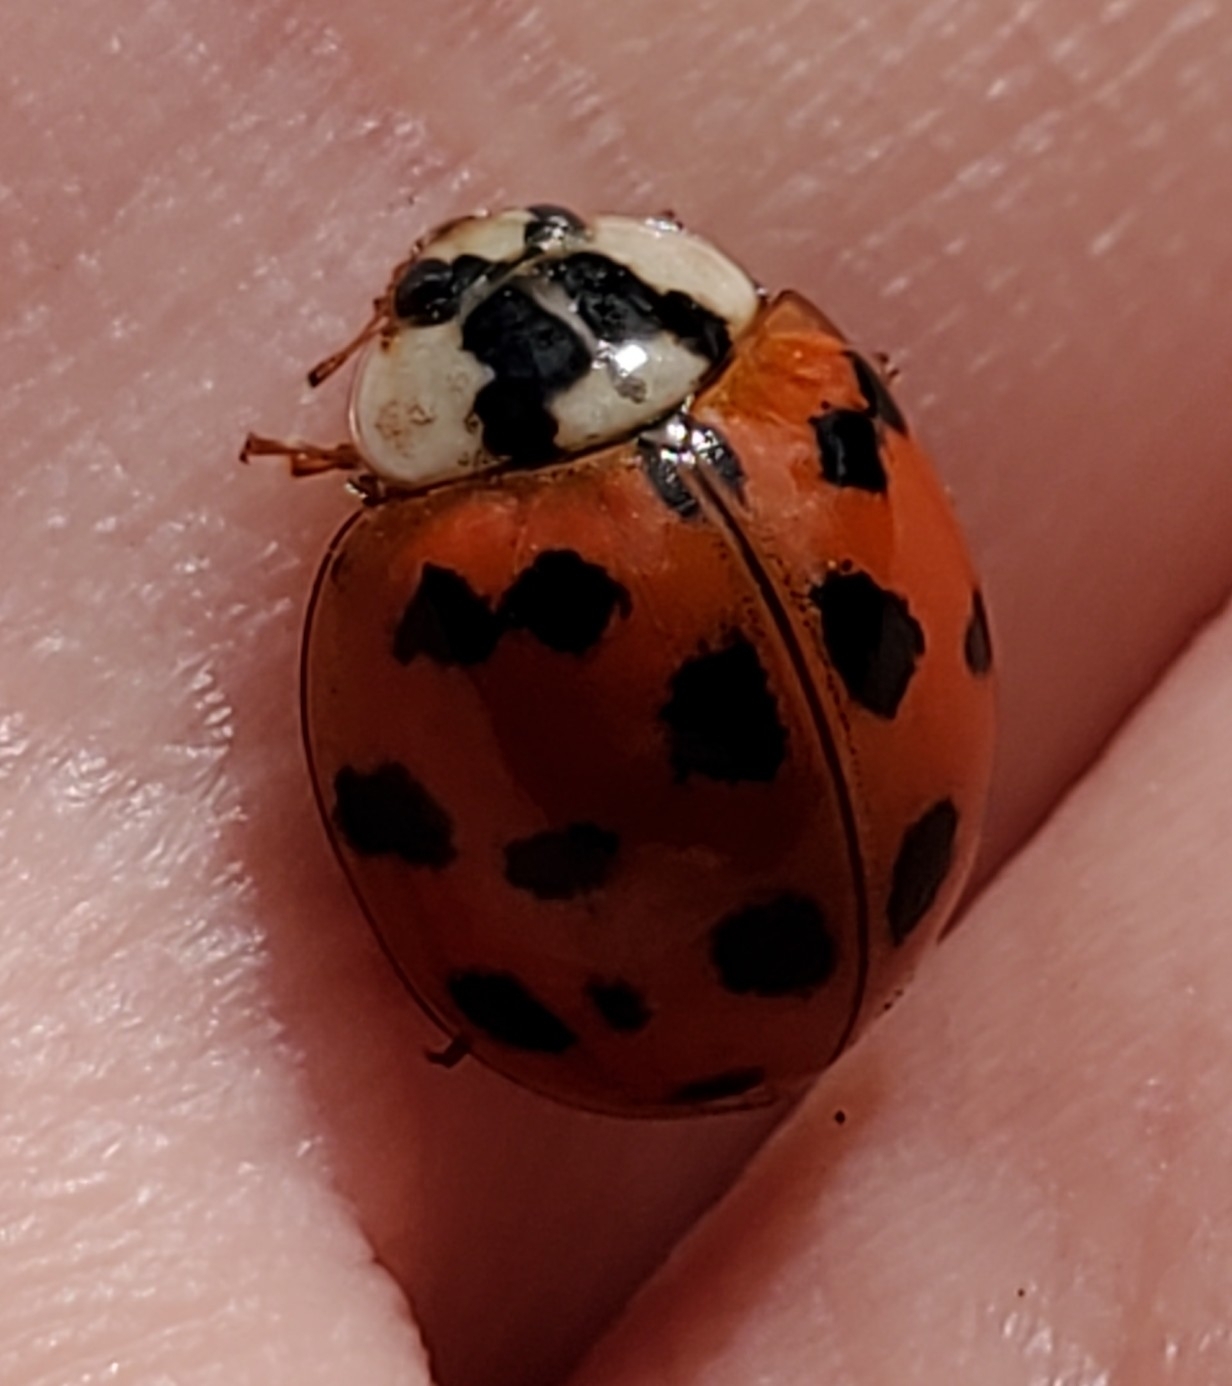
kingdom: Animalia
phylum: Arthropoda
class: Insecta
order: Coleoptera
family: Coccinellidae
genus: Harmonia
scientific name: Harmonia axyridis
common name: Harlequin ladybird
